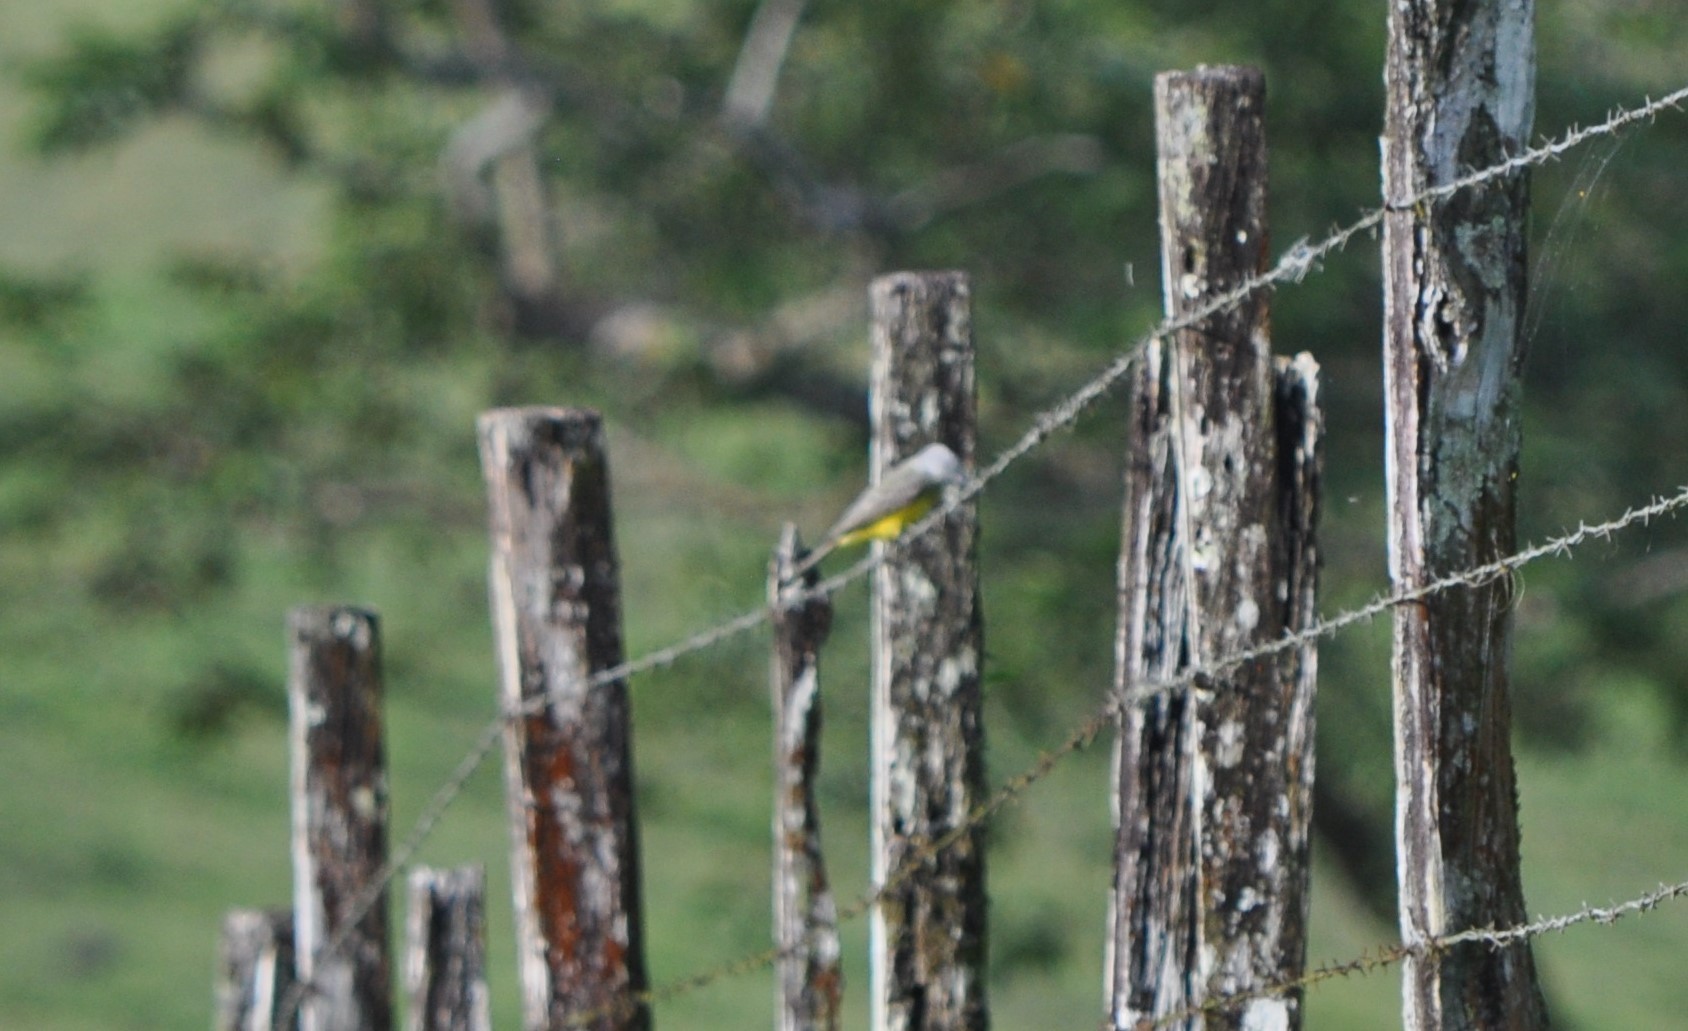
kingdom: Animalia
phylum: Chordata
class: Aves
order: Passeriformes
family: Tyrannidae
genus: Tyrannus
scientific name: Tyrannus melancholicus
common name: Tropical kingbird
